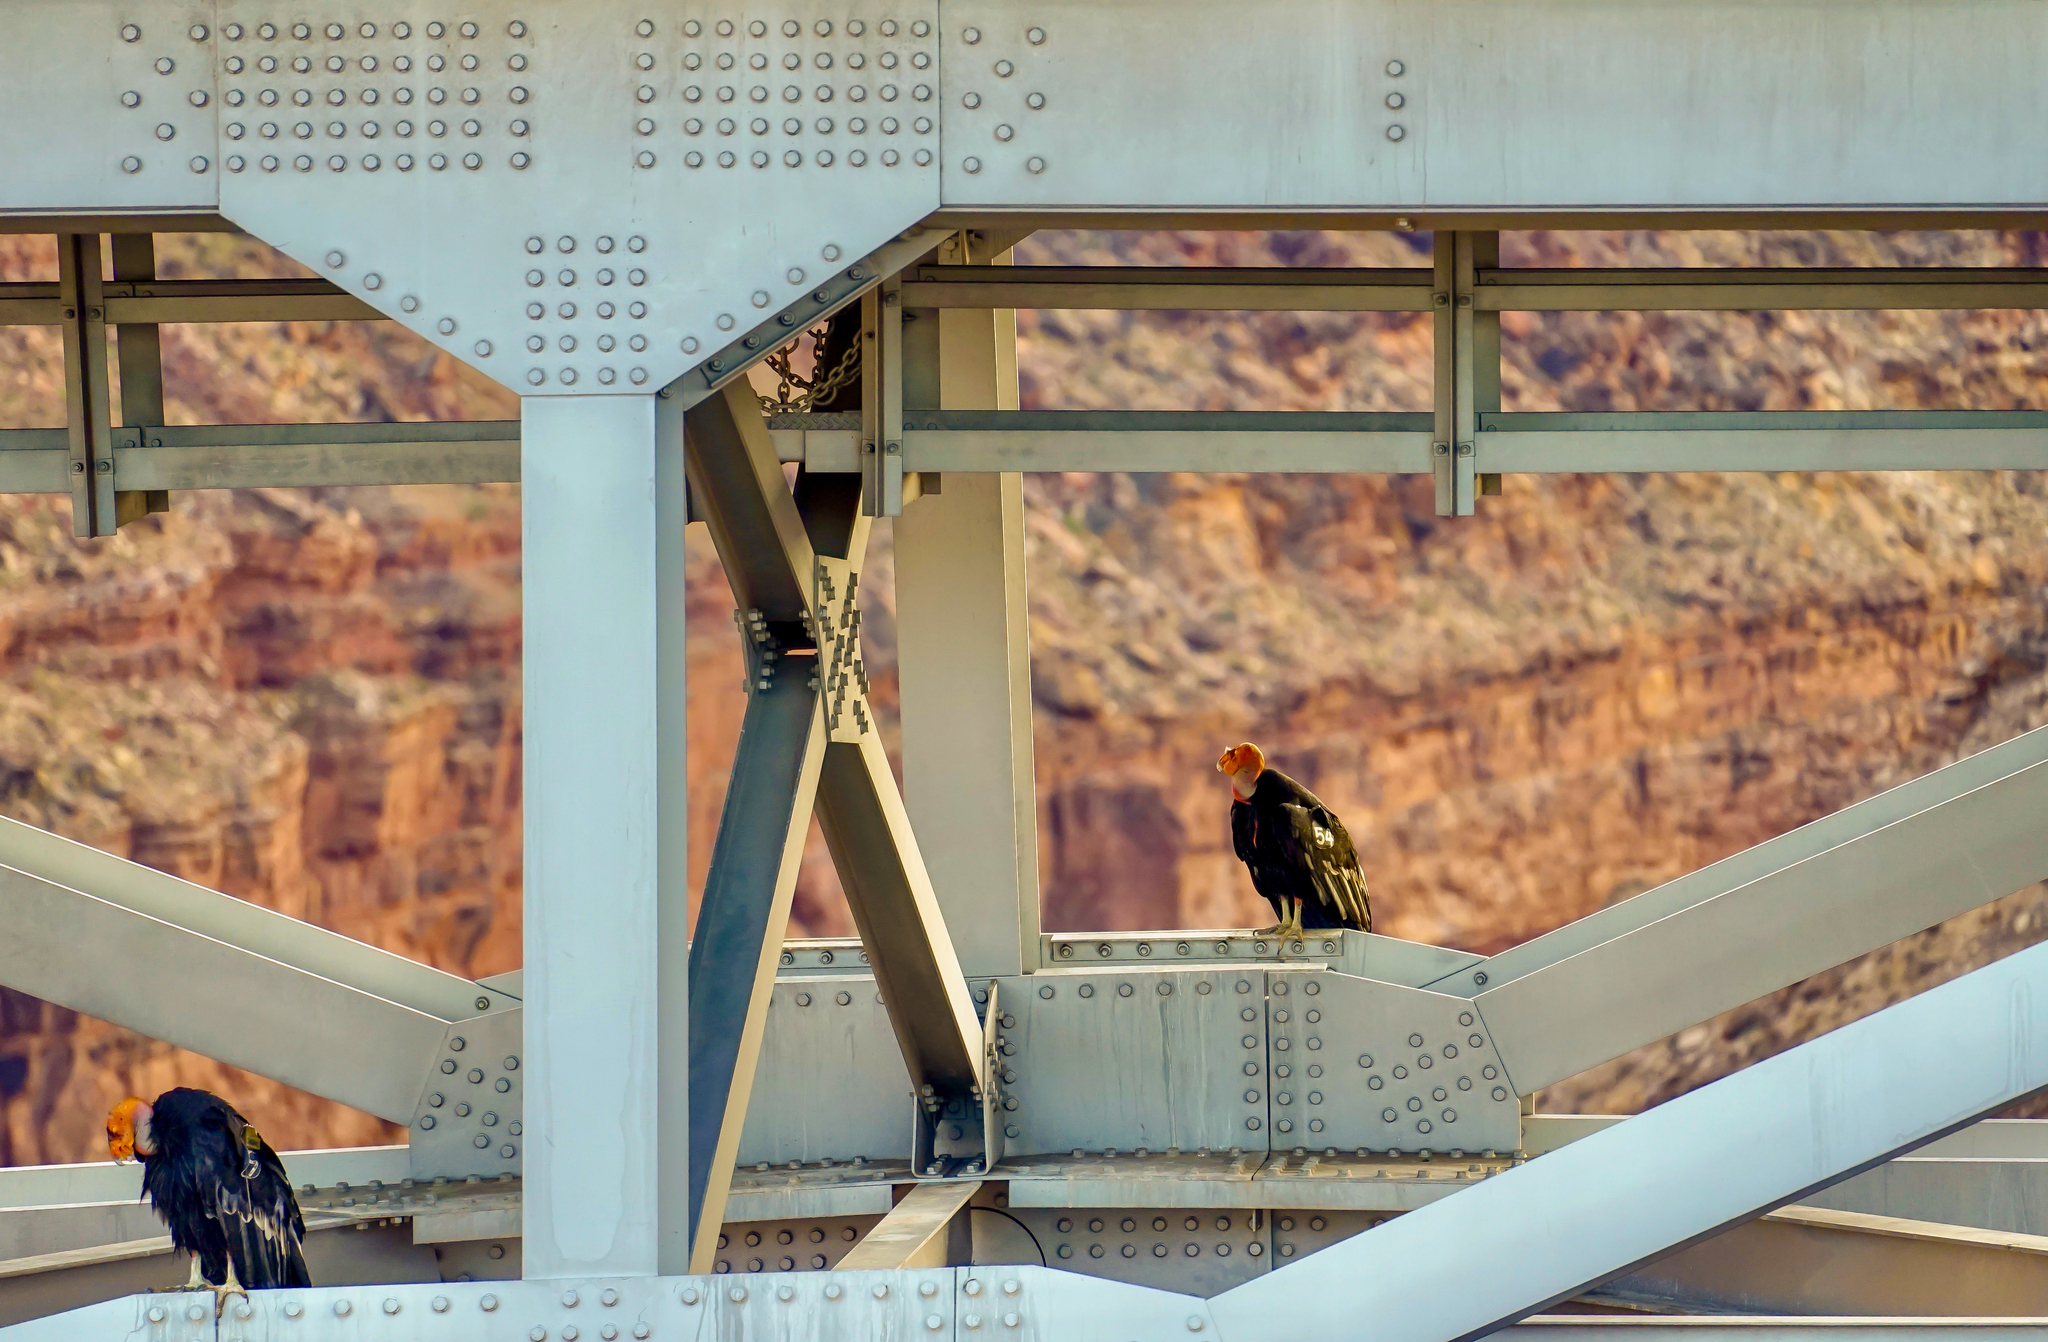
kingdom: Animalia
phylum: Chordata
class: Aves
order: Accipitriformes
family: Cathartidae
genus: Gymnogyps
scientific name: Gymnogyps californianus
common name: California condor
